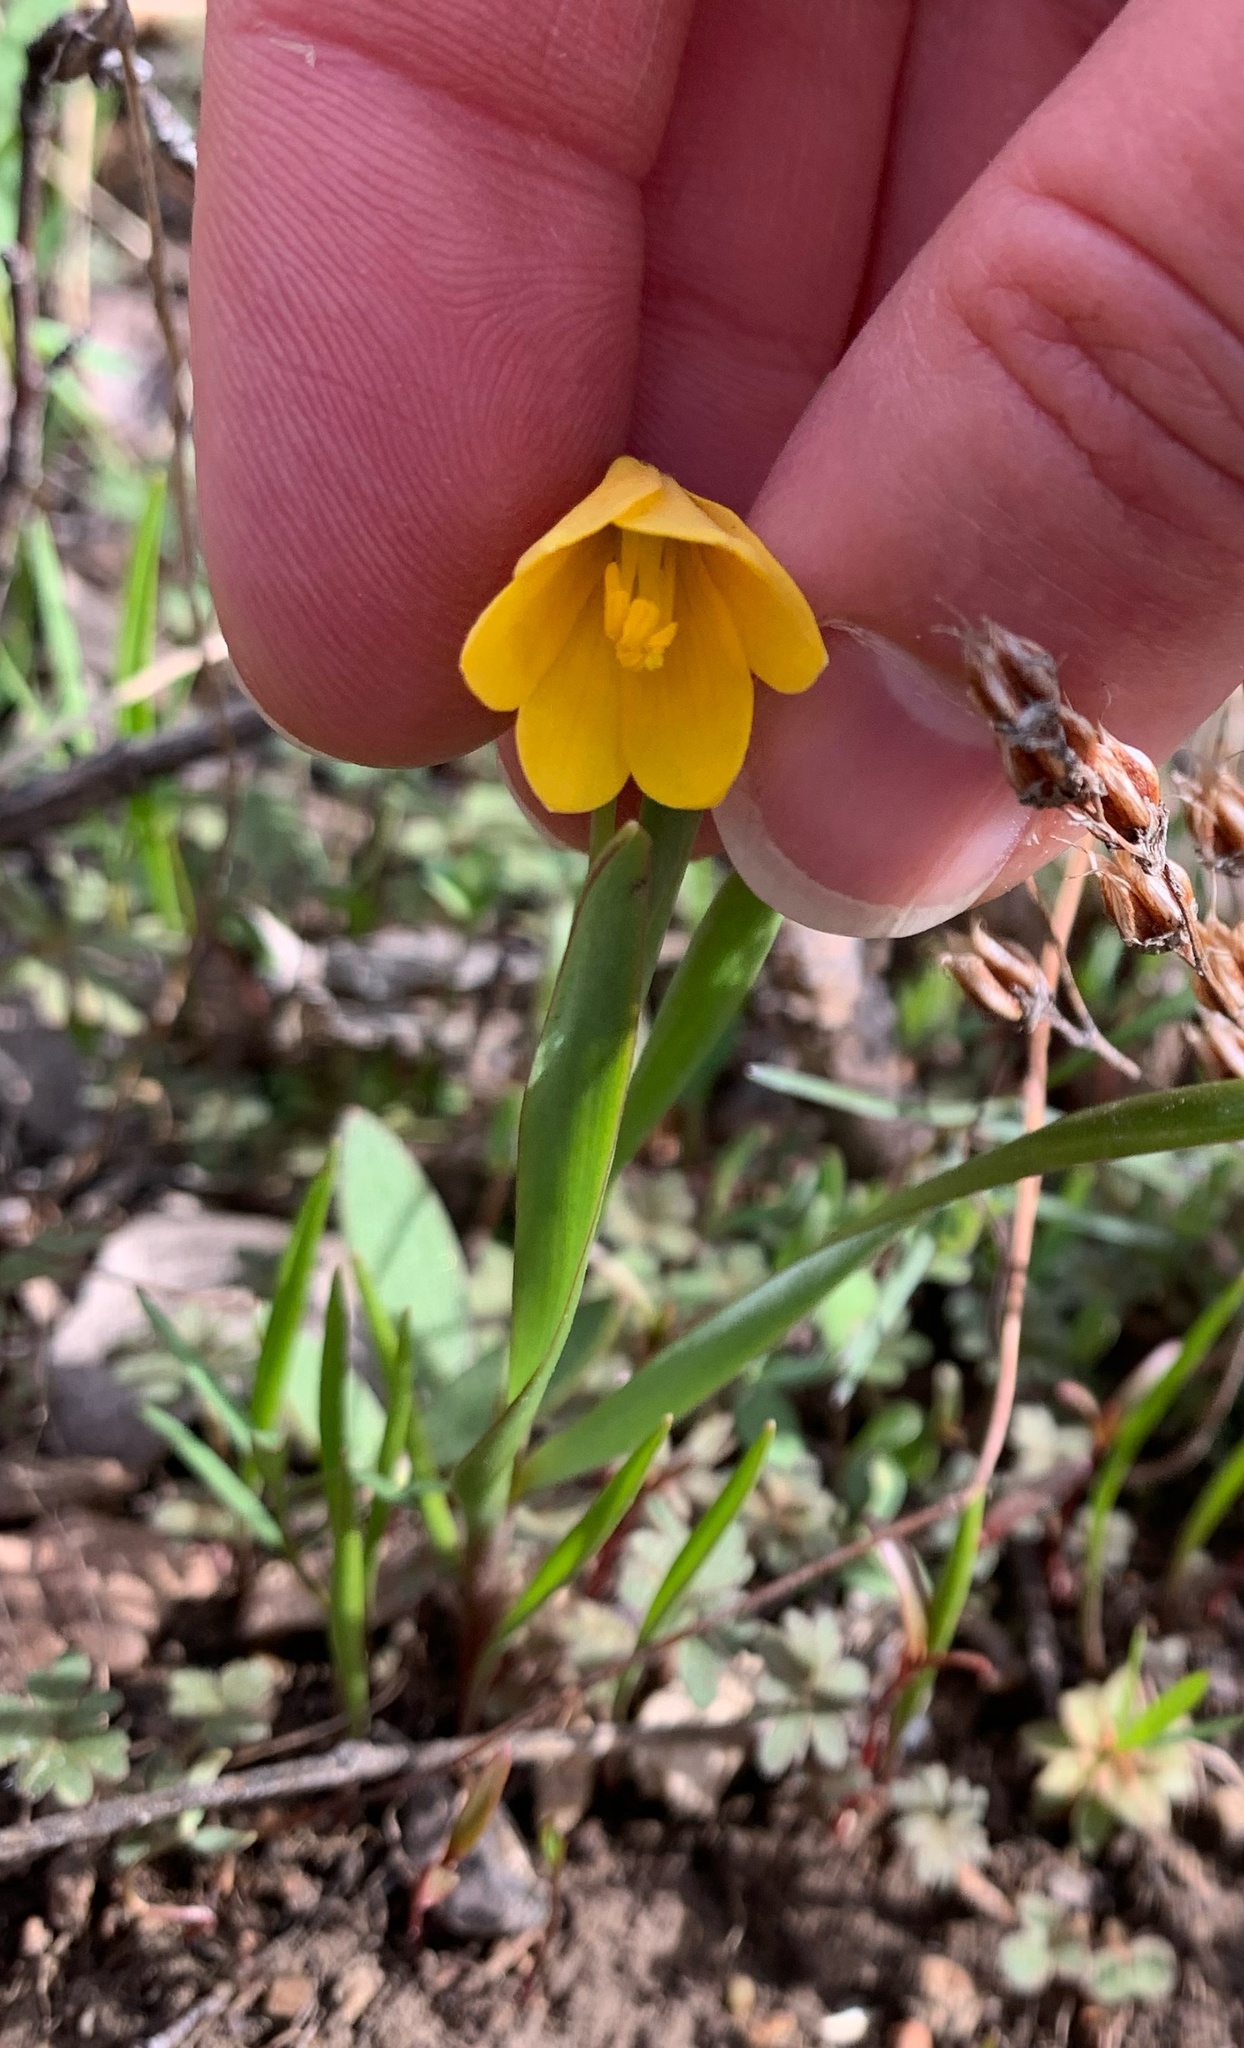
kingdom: Plantae
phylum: Tracheophyta
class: Liliopsida
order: Liliales
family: Liliaceae
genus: Fritillaria
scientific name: Fritillaria pudica
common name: Yellow fritillary
